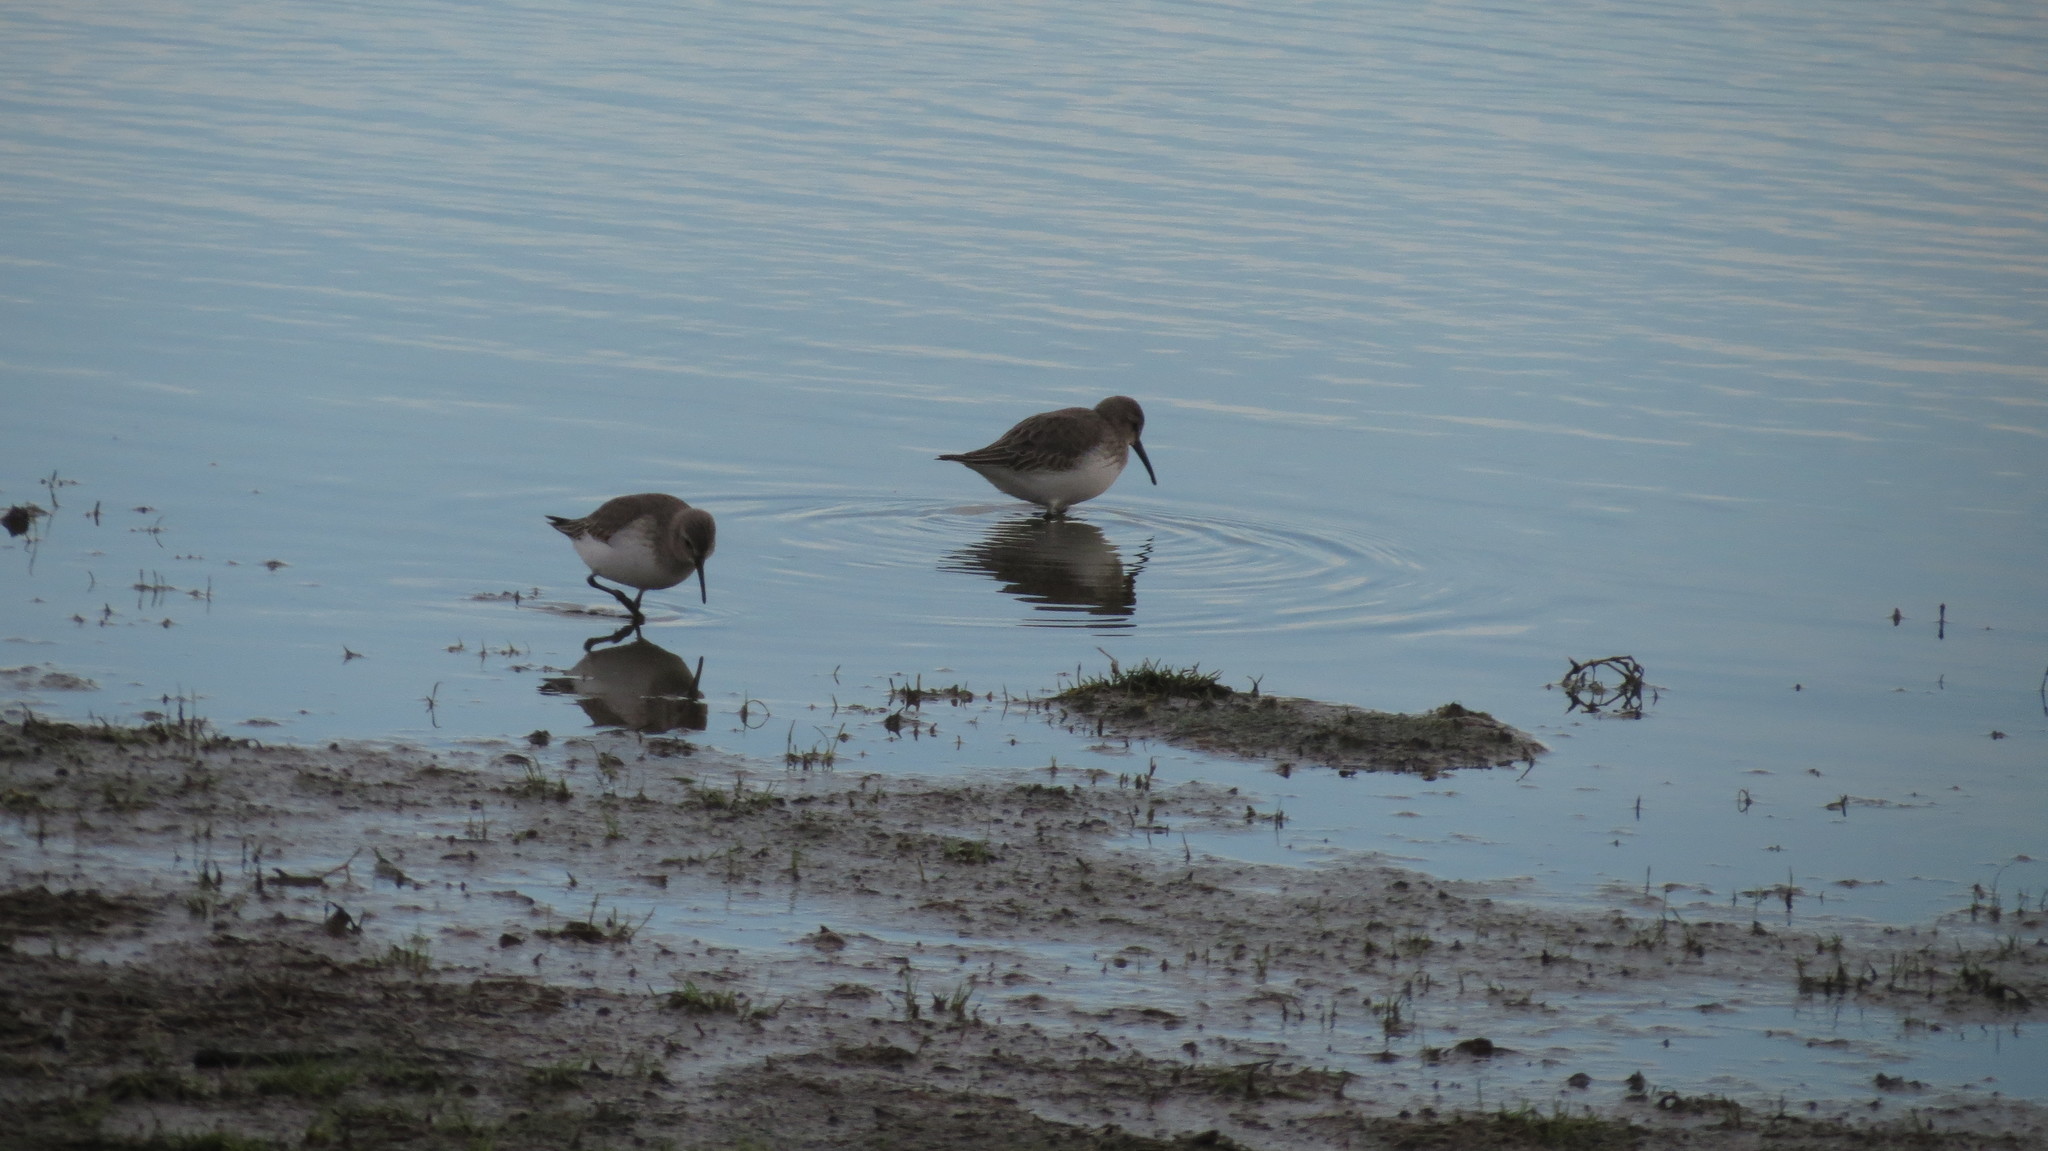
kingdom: Animalia
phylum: Chordata
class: Aves
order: Charadriiformes
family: Scolopacidae
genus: Calidris
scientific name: Calidris alpina
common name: Dunlin
